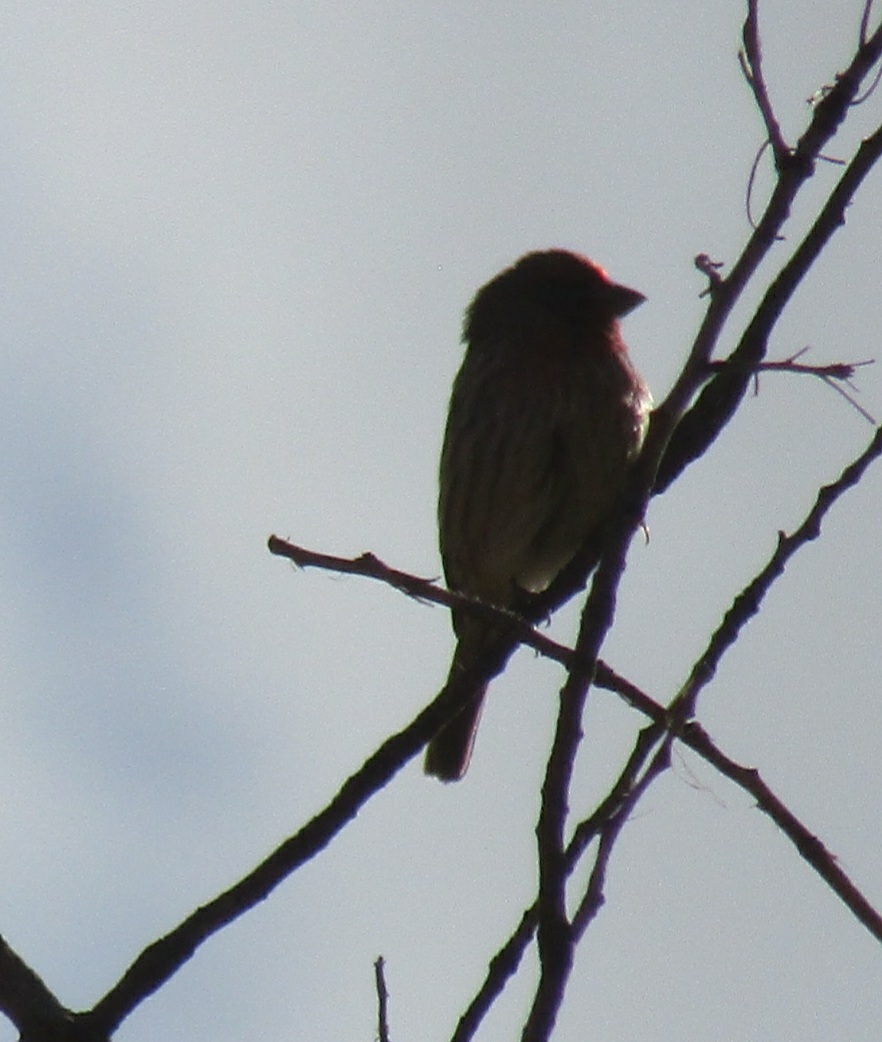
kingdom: Animalia
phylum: Chordata
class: Aves
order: Passeriformes
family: Fringillidae
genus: Haemorhous
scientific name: Haemorhous mexicanus
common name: House finch
